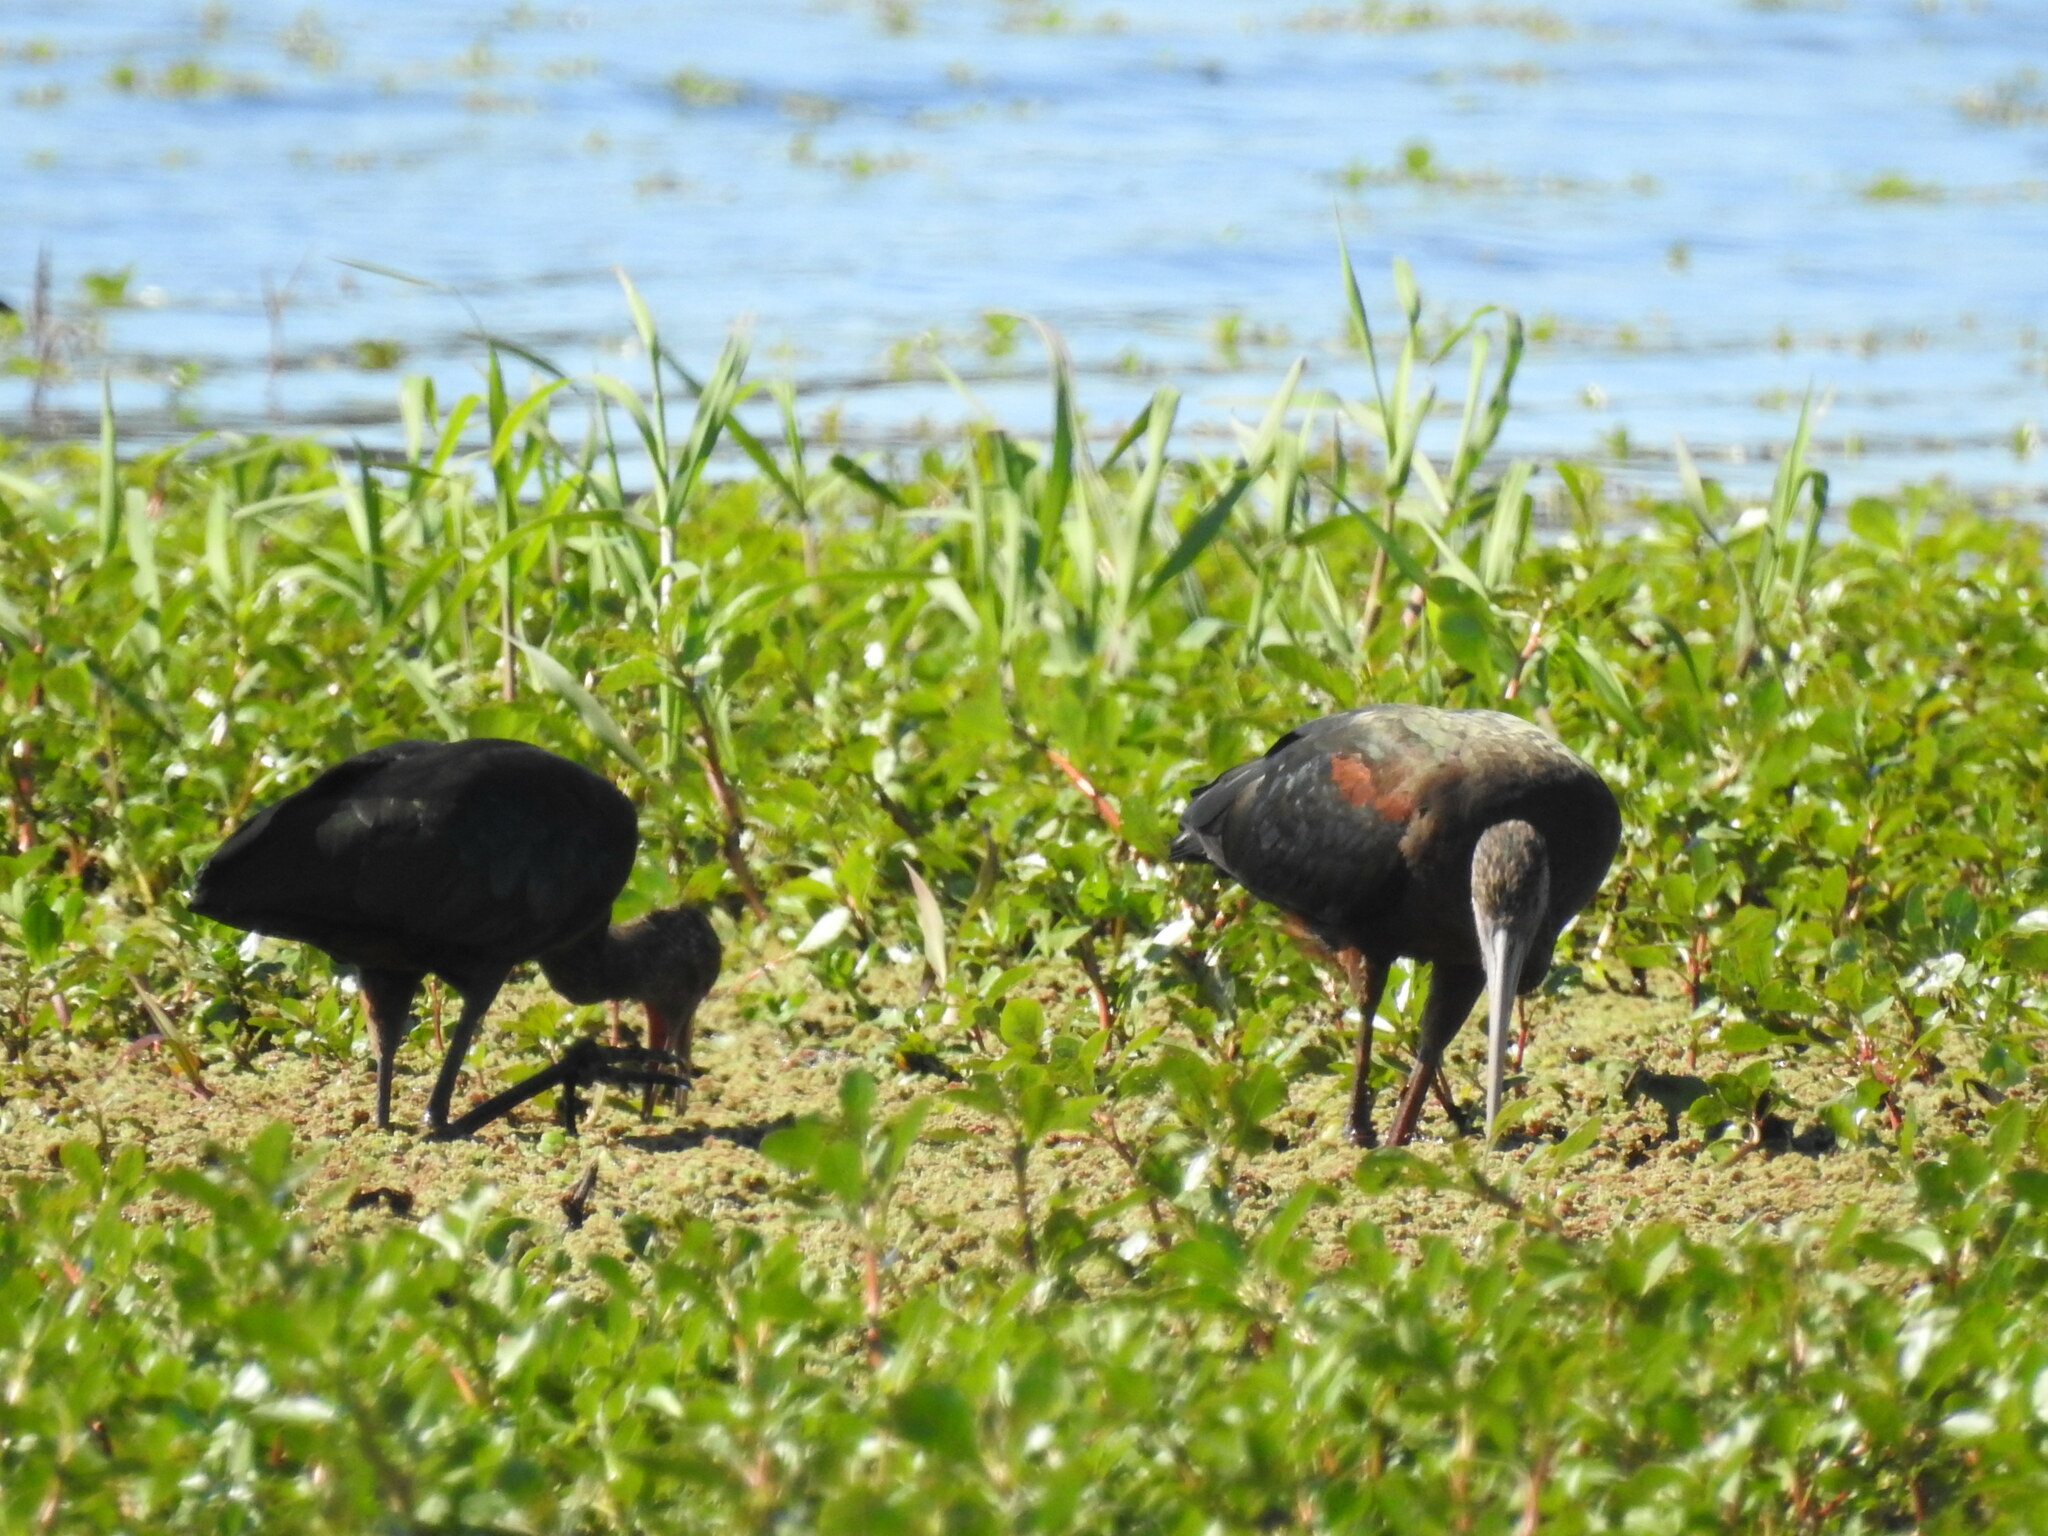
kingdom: Animalia
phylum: Chordata
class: Aves
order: Pelecaniformes
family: Threskiornithidae
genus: Plegadis
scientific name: Plegadis chihi
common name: White-faced ibis
